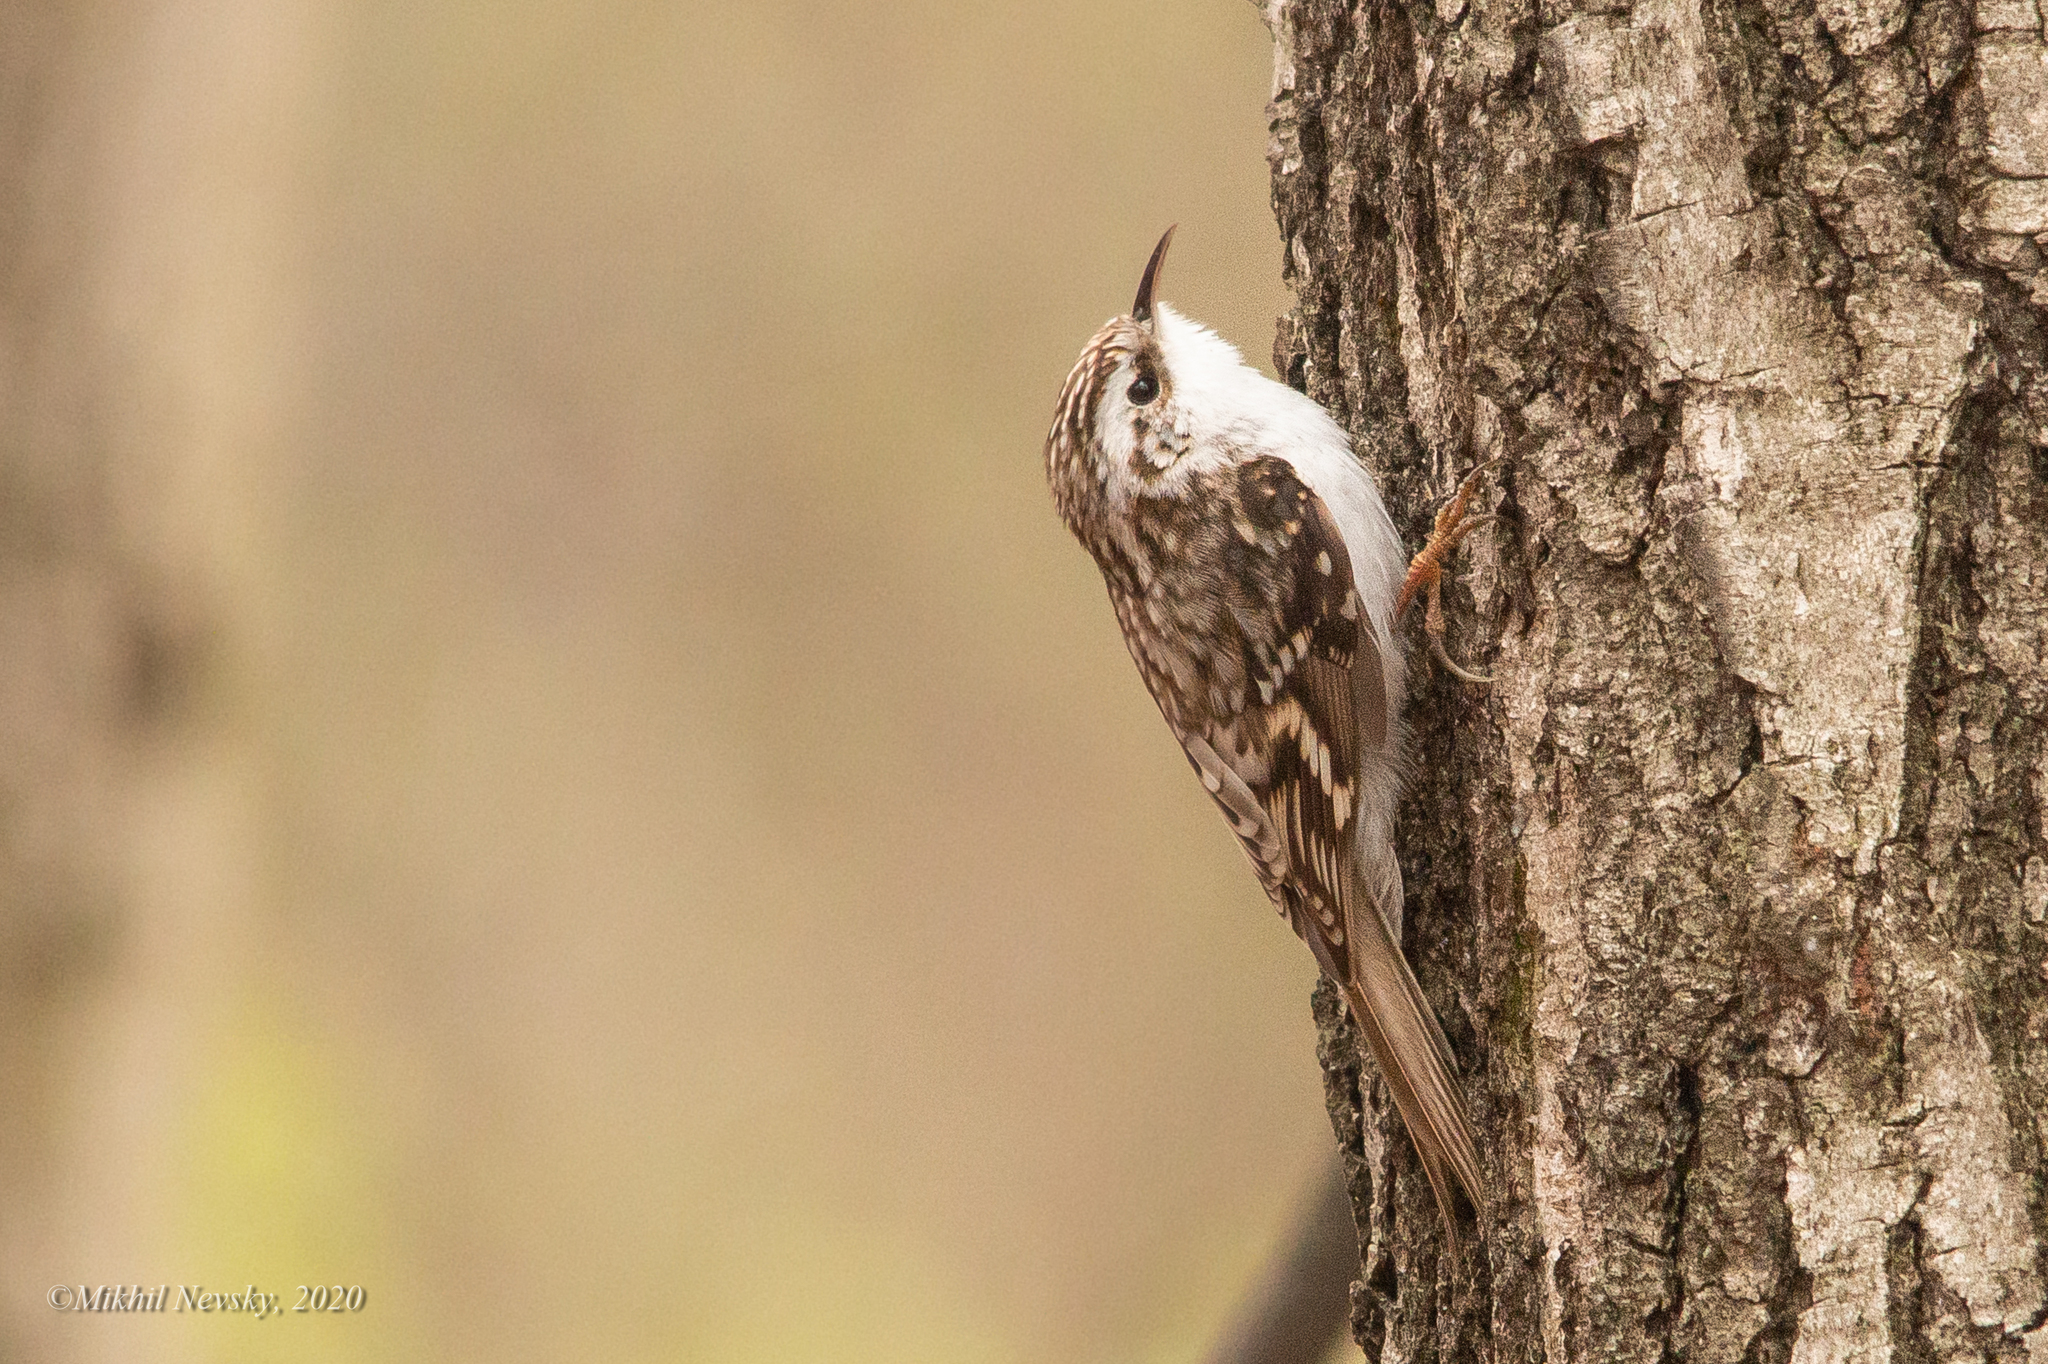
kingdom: Animalia
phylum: Chordata
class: Aves
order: Passeriformes
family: Certhiidae
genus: Certhia
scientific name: Certhia familiaris
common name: Eurasian treecreeper
